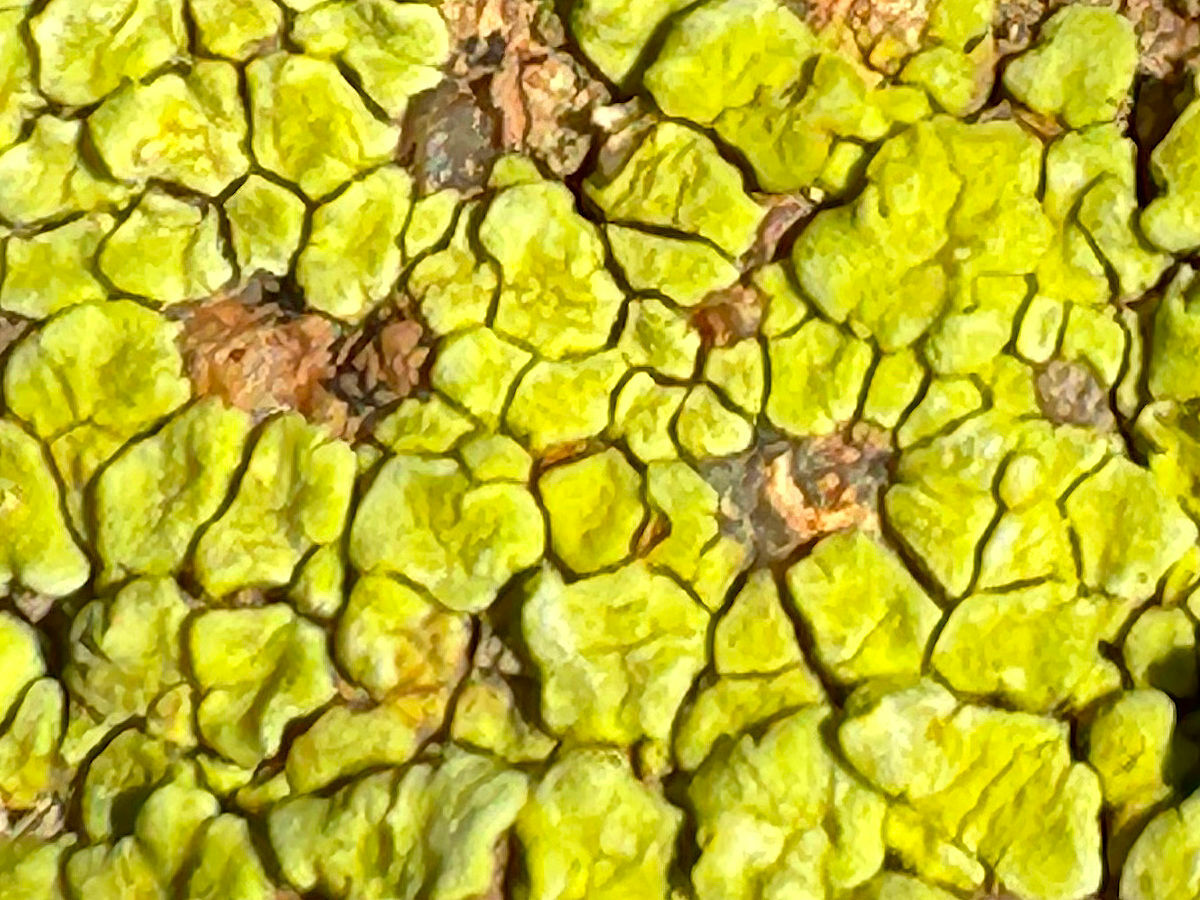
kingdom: Fungi
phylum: Ascomycota
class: Lecanoromycetes
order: Acarosporales
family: Acarosporaceae
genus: Acarospora
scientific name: Acarospora socialis
